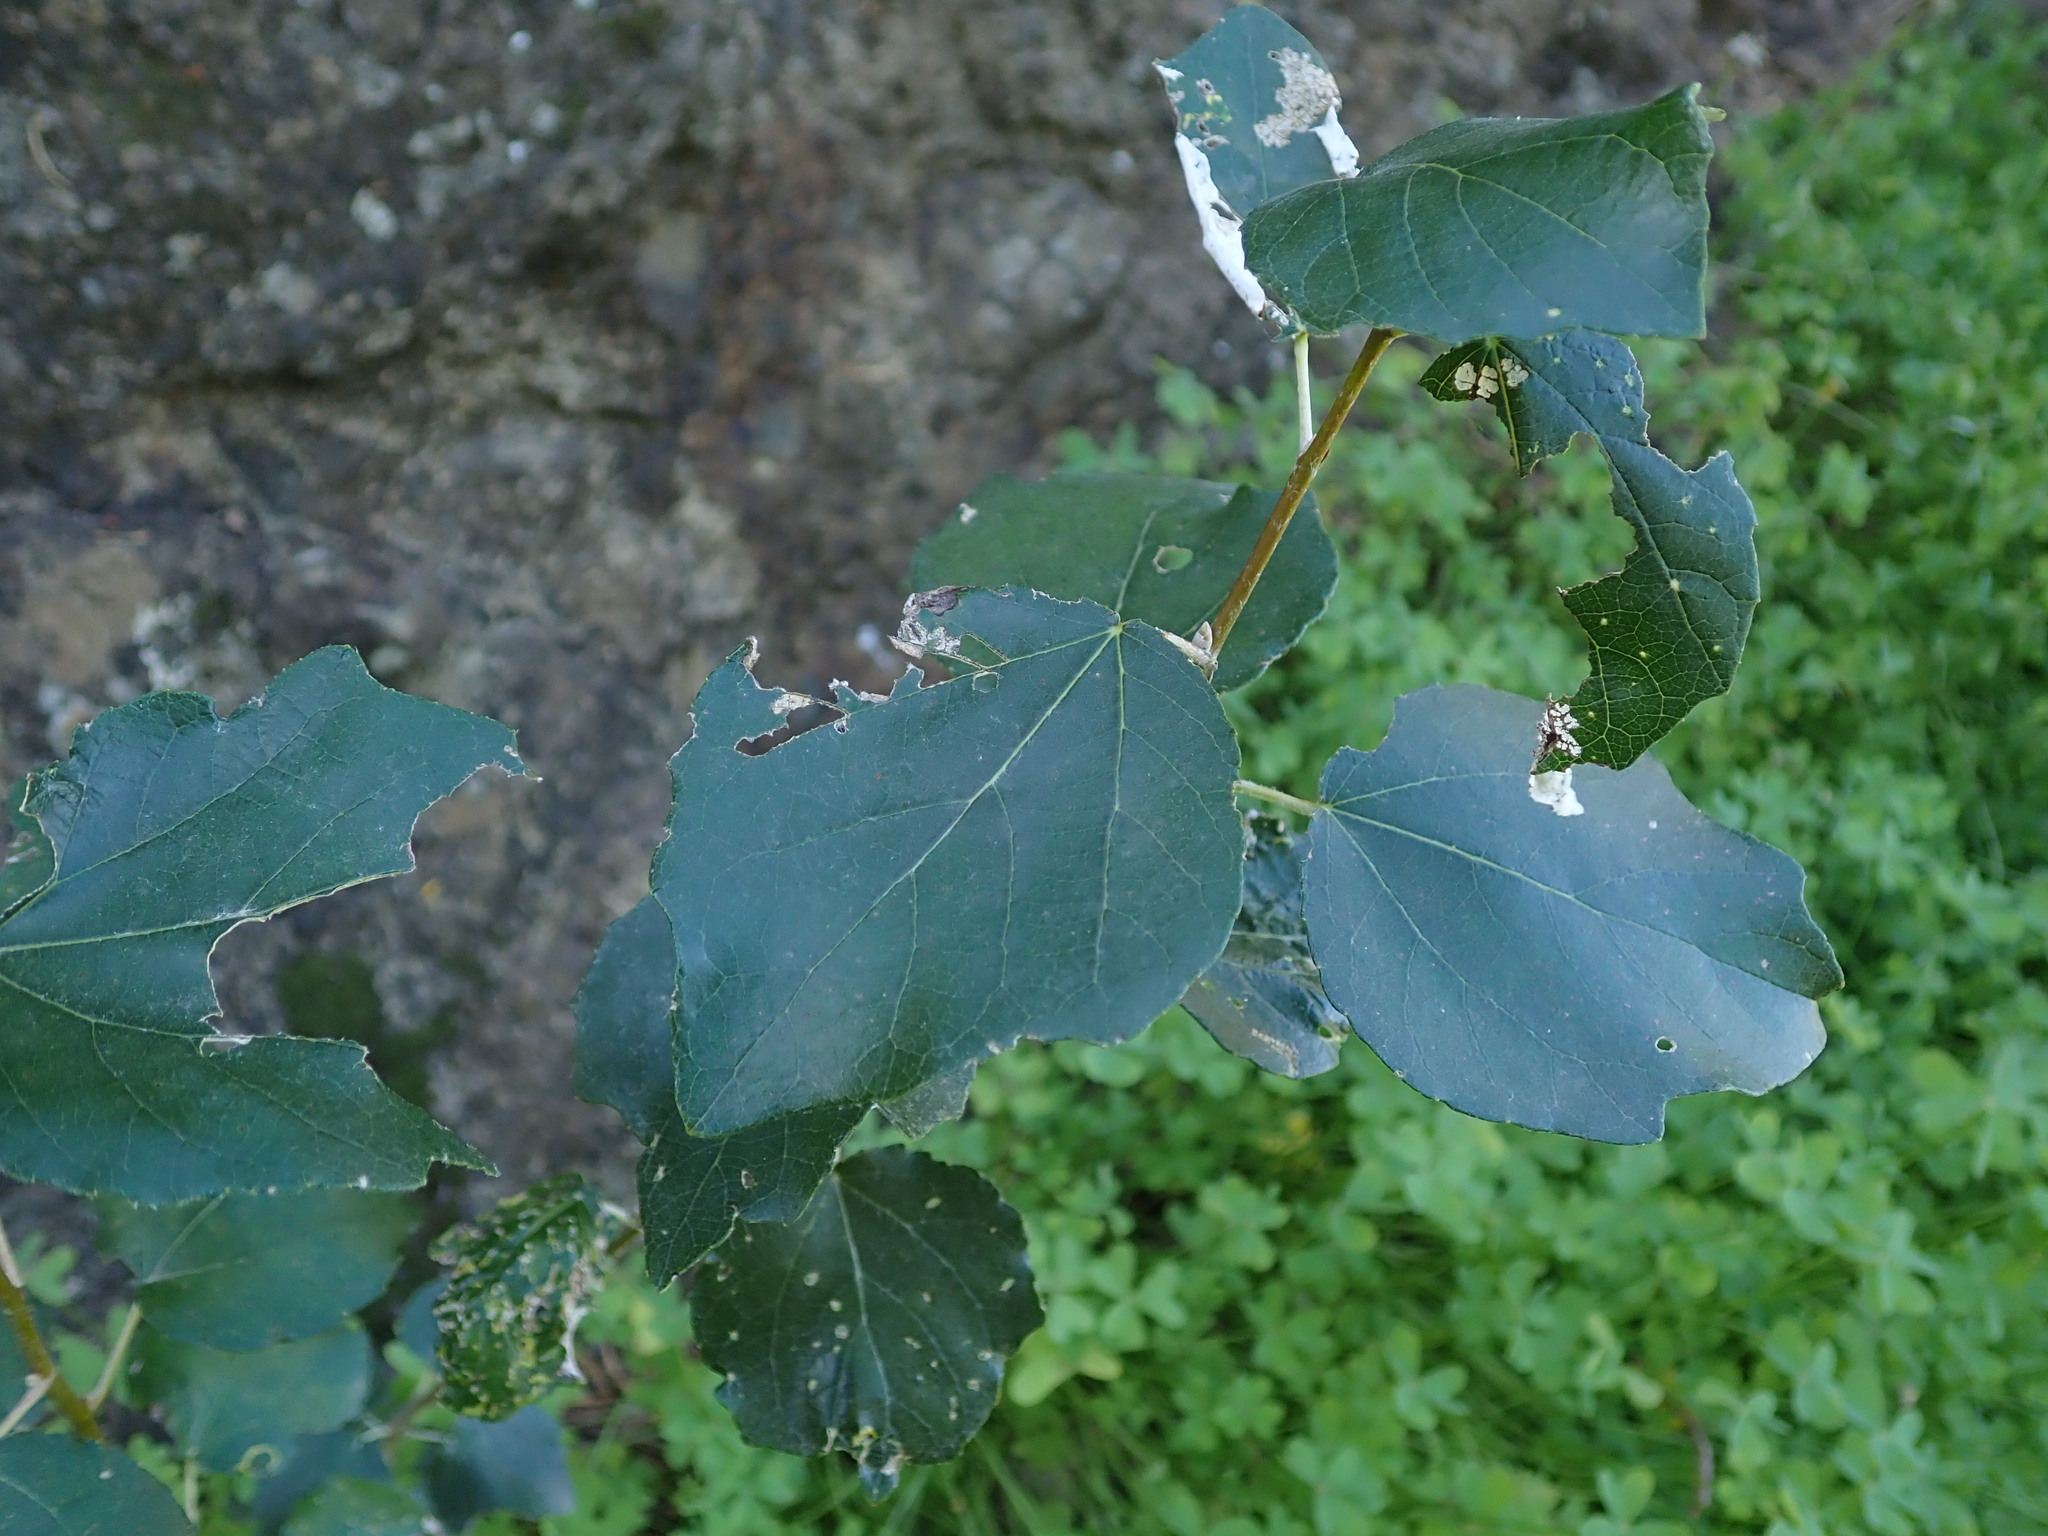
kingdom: Plantae
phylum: Tracheophyta
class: Magnoliopsida
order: Malpighiales
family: Salicaceae
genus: Populus
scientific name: Populus alba
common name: White poplar
